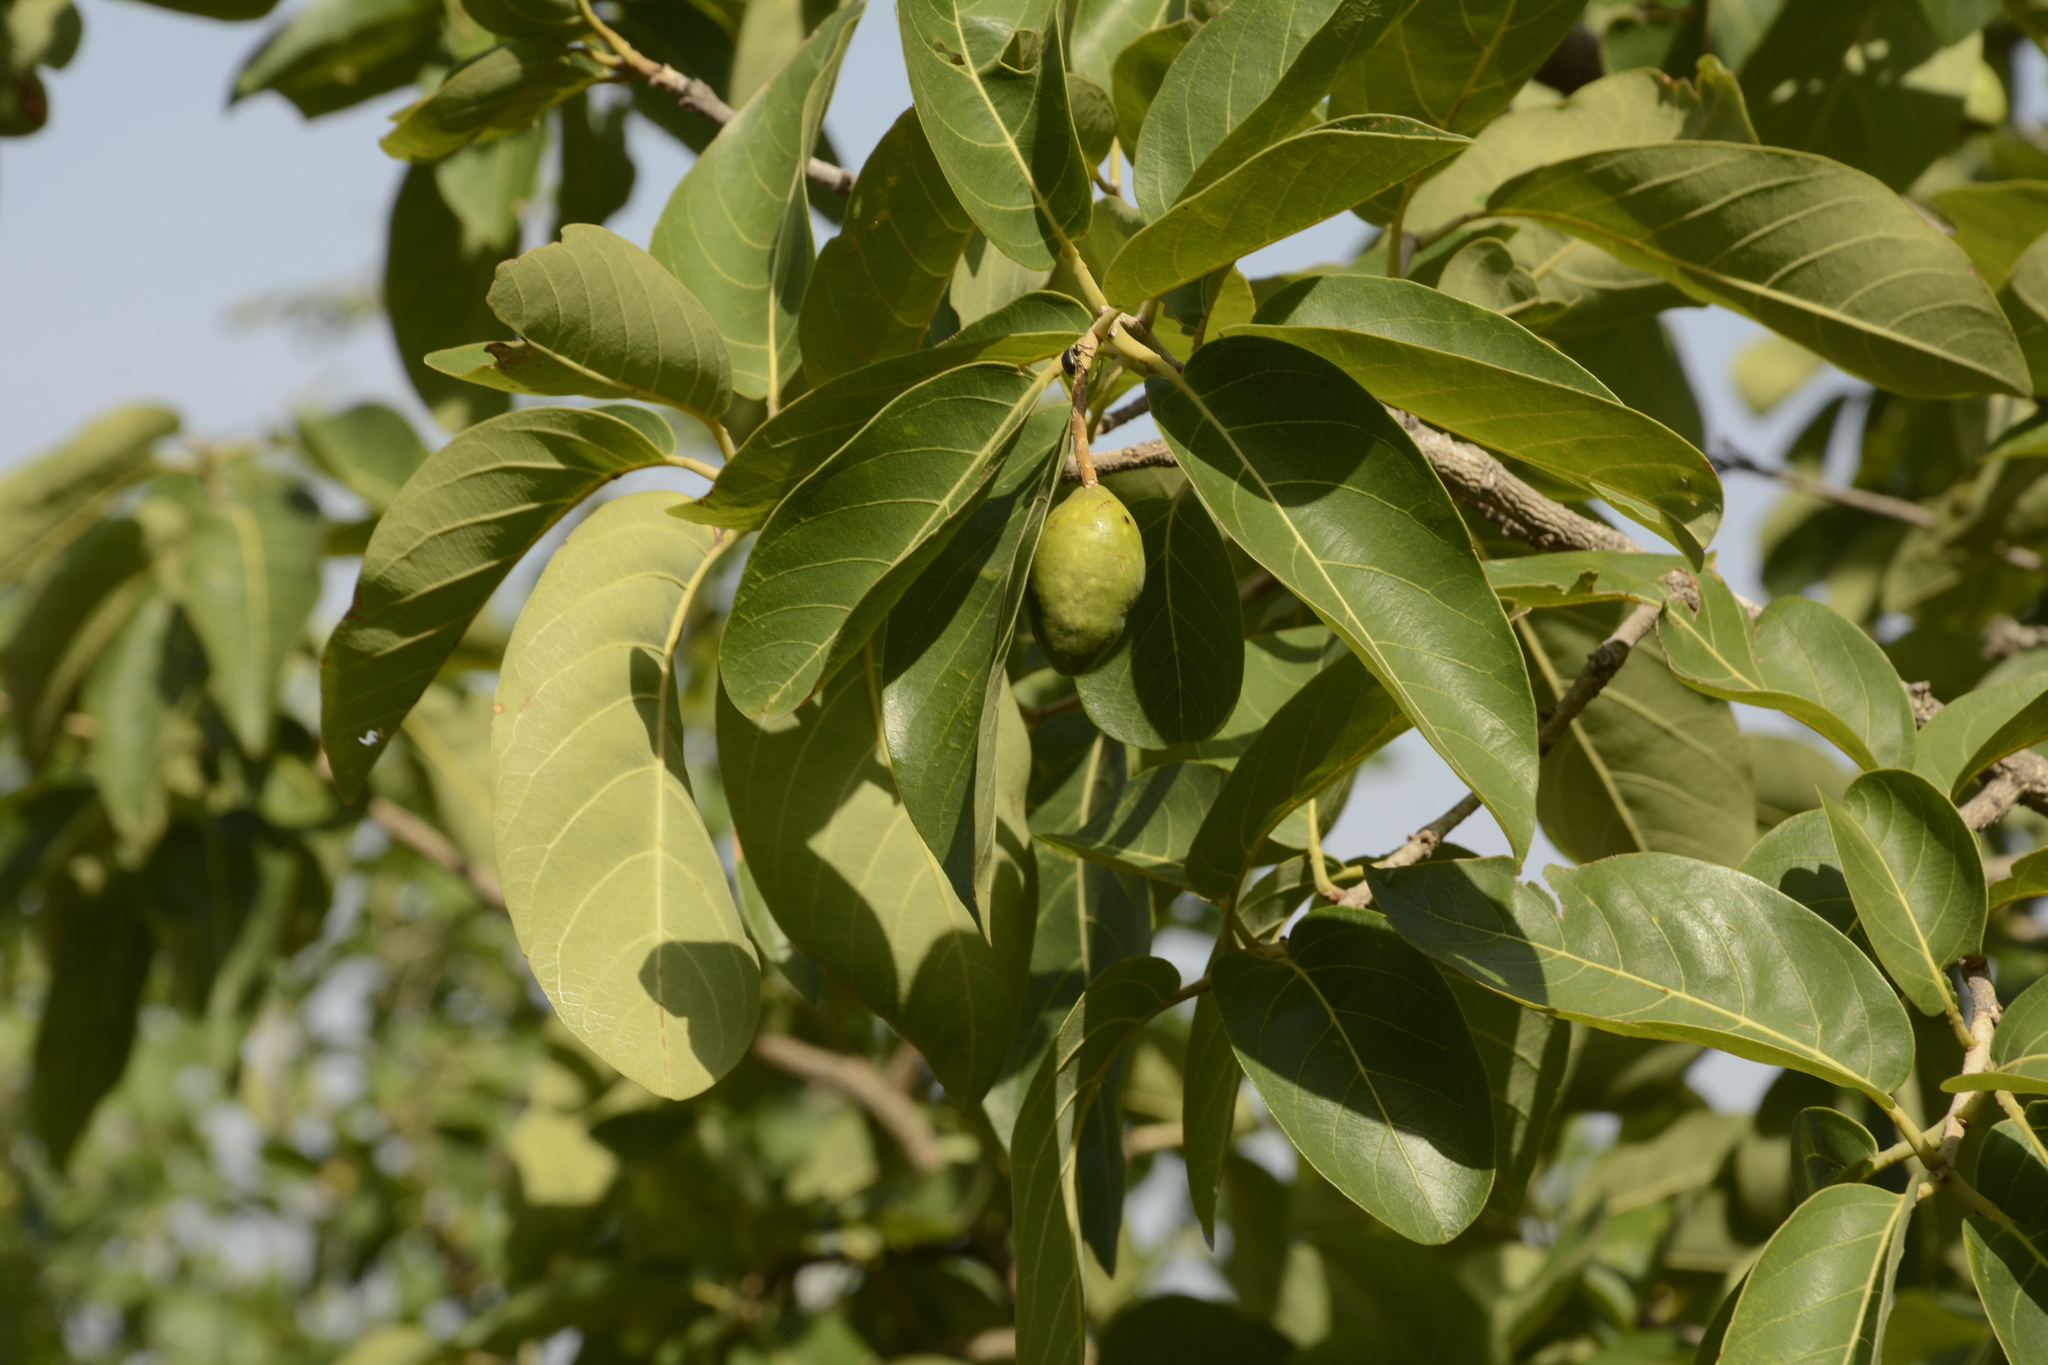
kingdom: Plantae
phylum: Tracheophyta
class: Magnoliopsida
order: Myrtales
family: Combretaceae
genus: Terminalia
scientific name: Terminalia chebula
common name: Myrobalan
